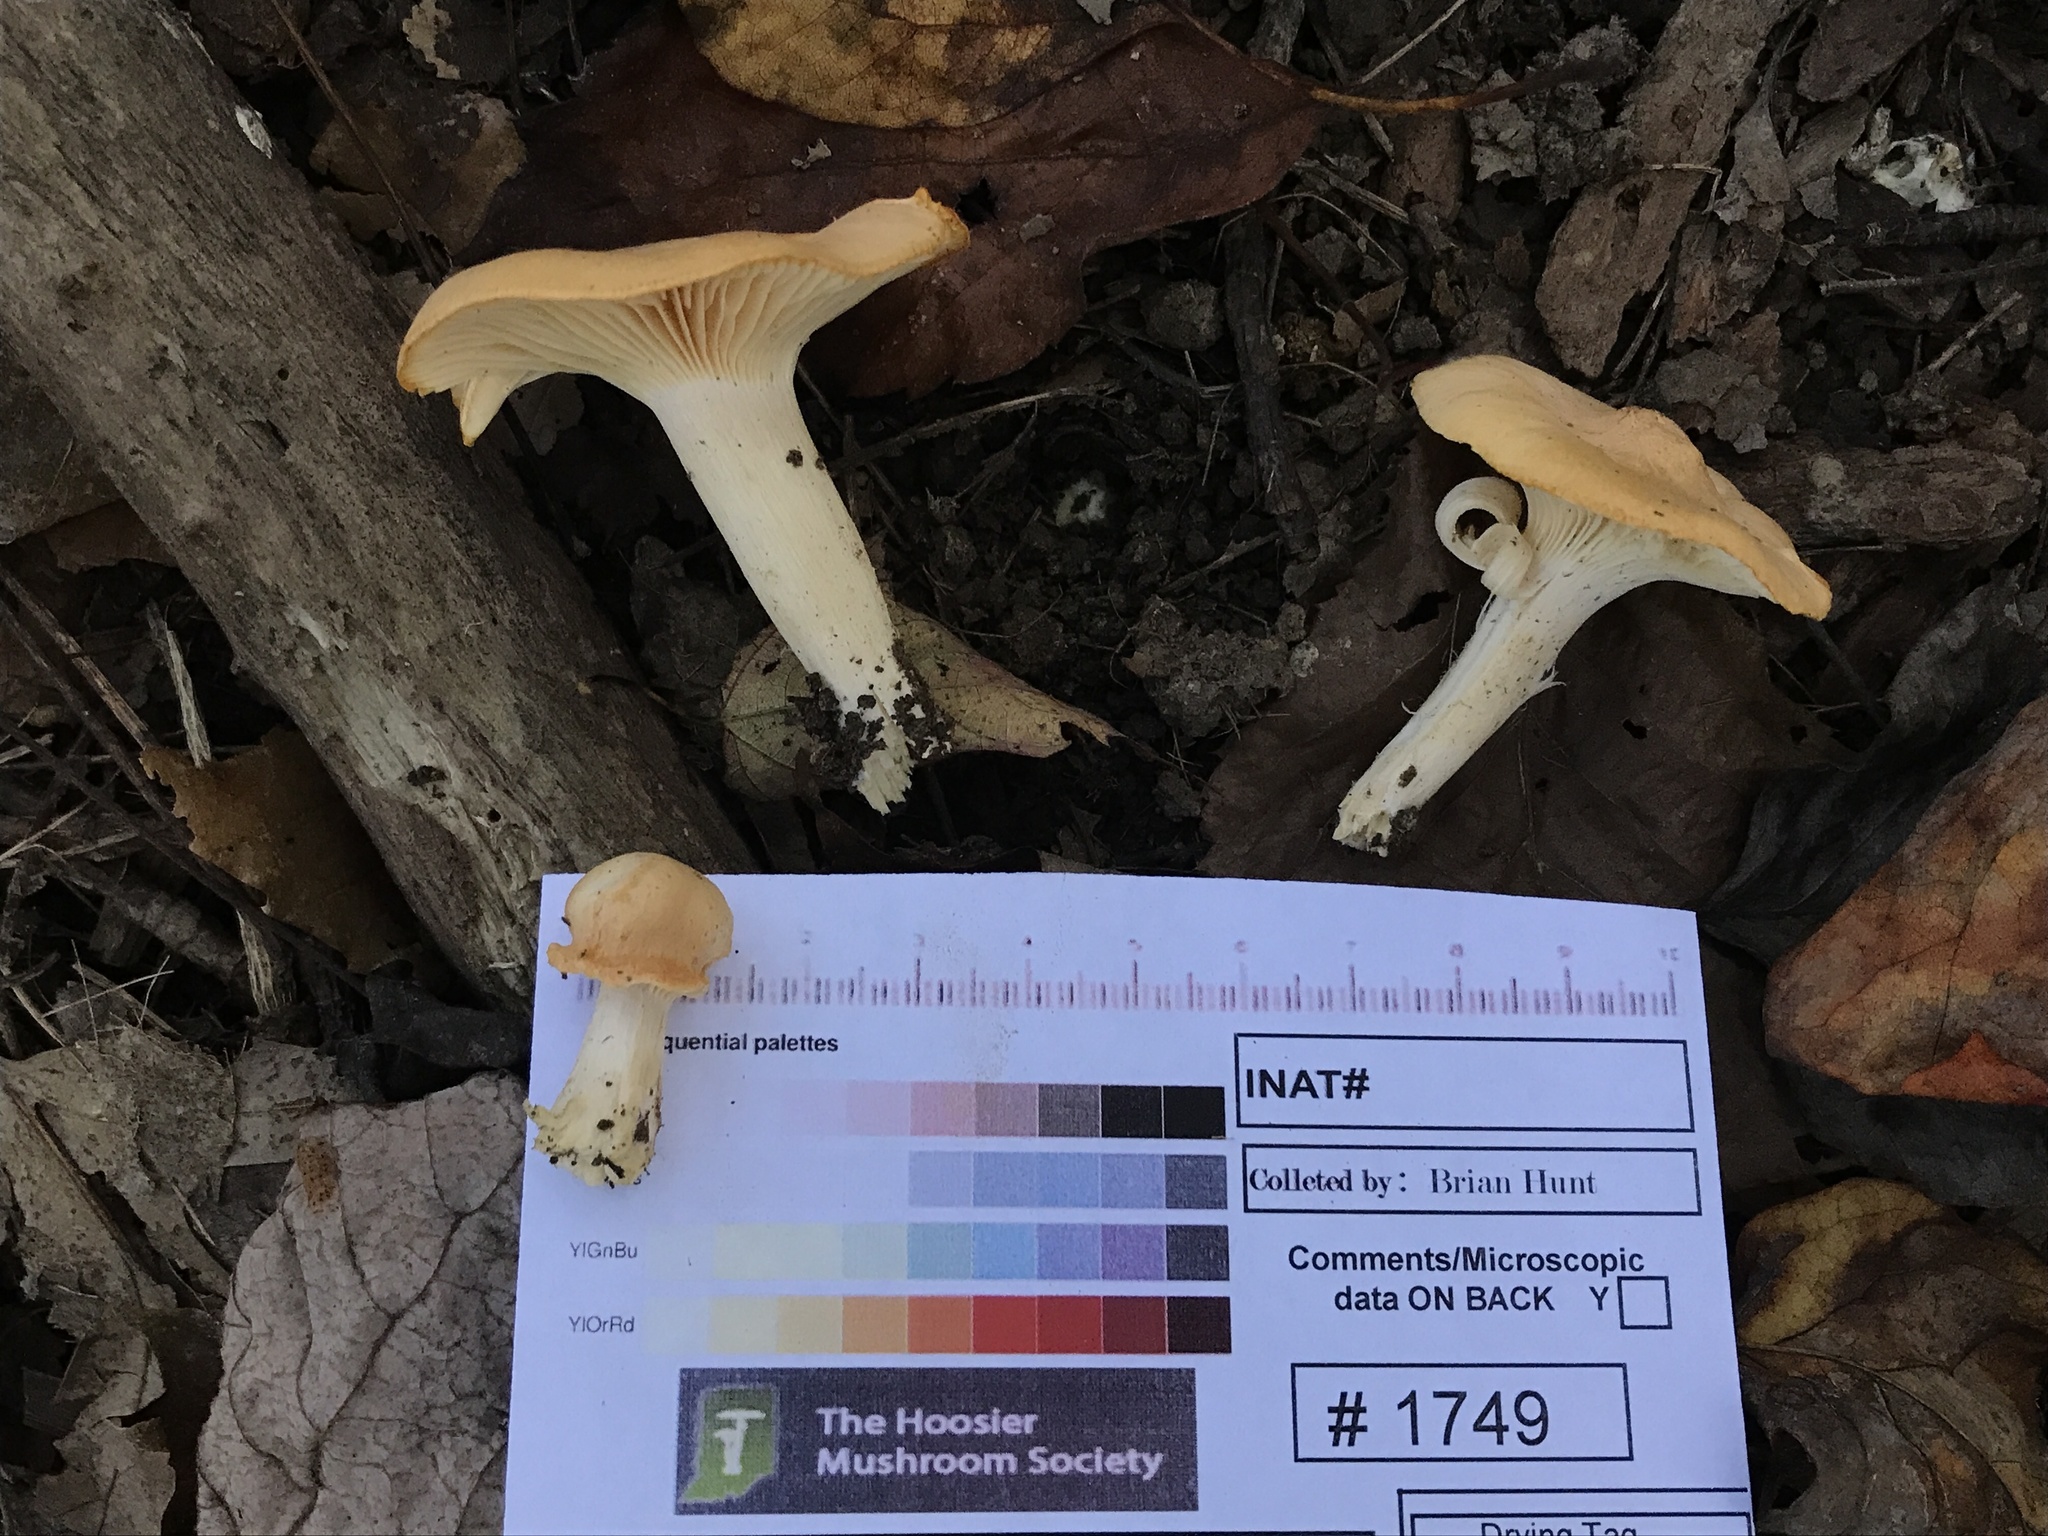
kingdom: Fungi
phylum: Basidiomycota
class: Agaricomycetes
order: Agaricales
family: Hygrophoraceae
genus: Cuphophyllus
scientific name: Cuphophyllus pratensis
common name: Meadow waxcap
